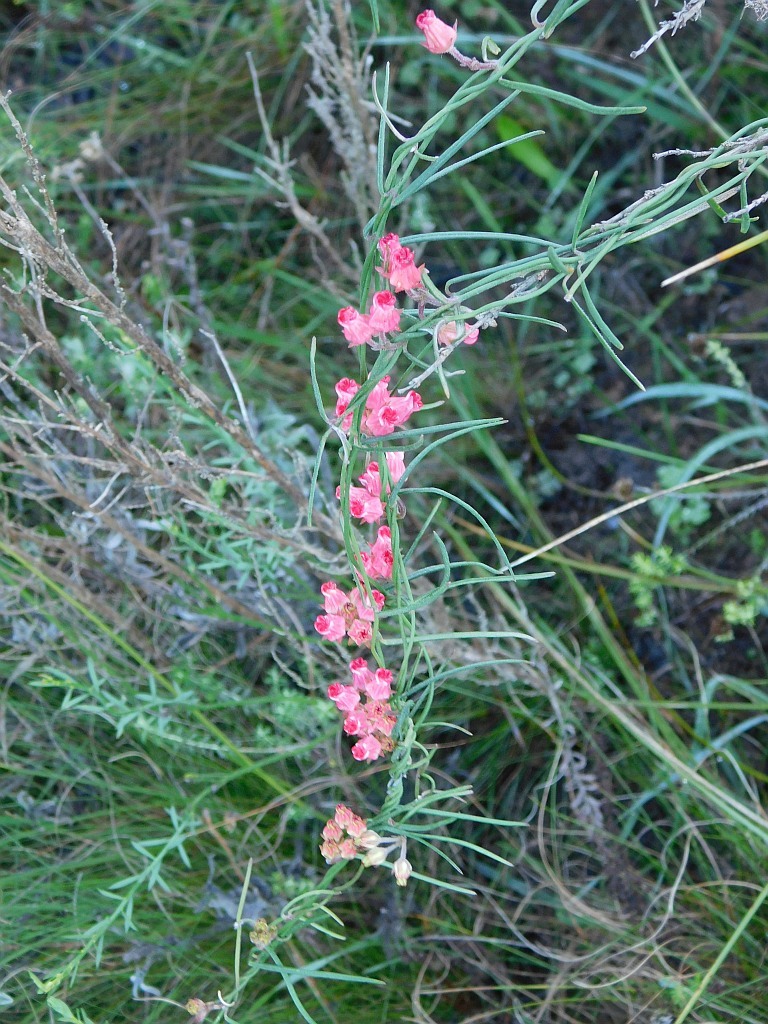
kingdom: Plantae
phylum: Tracheophyta
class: Magnoliopsida
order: Gentianales
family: Apocynaceae
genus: Microloma
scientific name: Microloma tenuifolium
